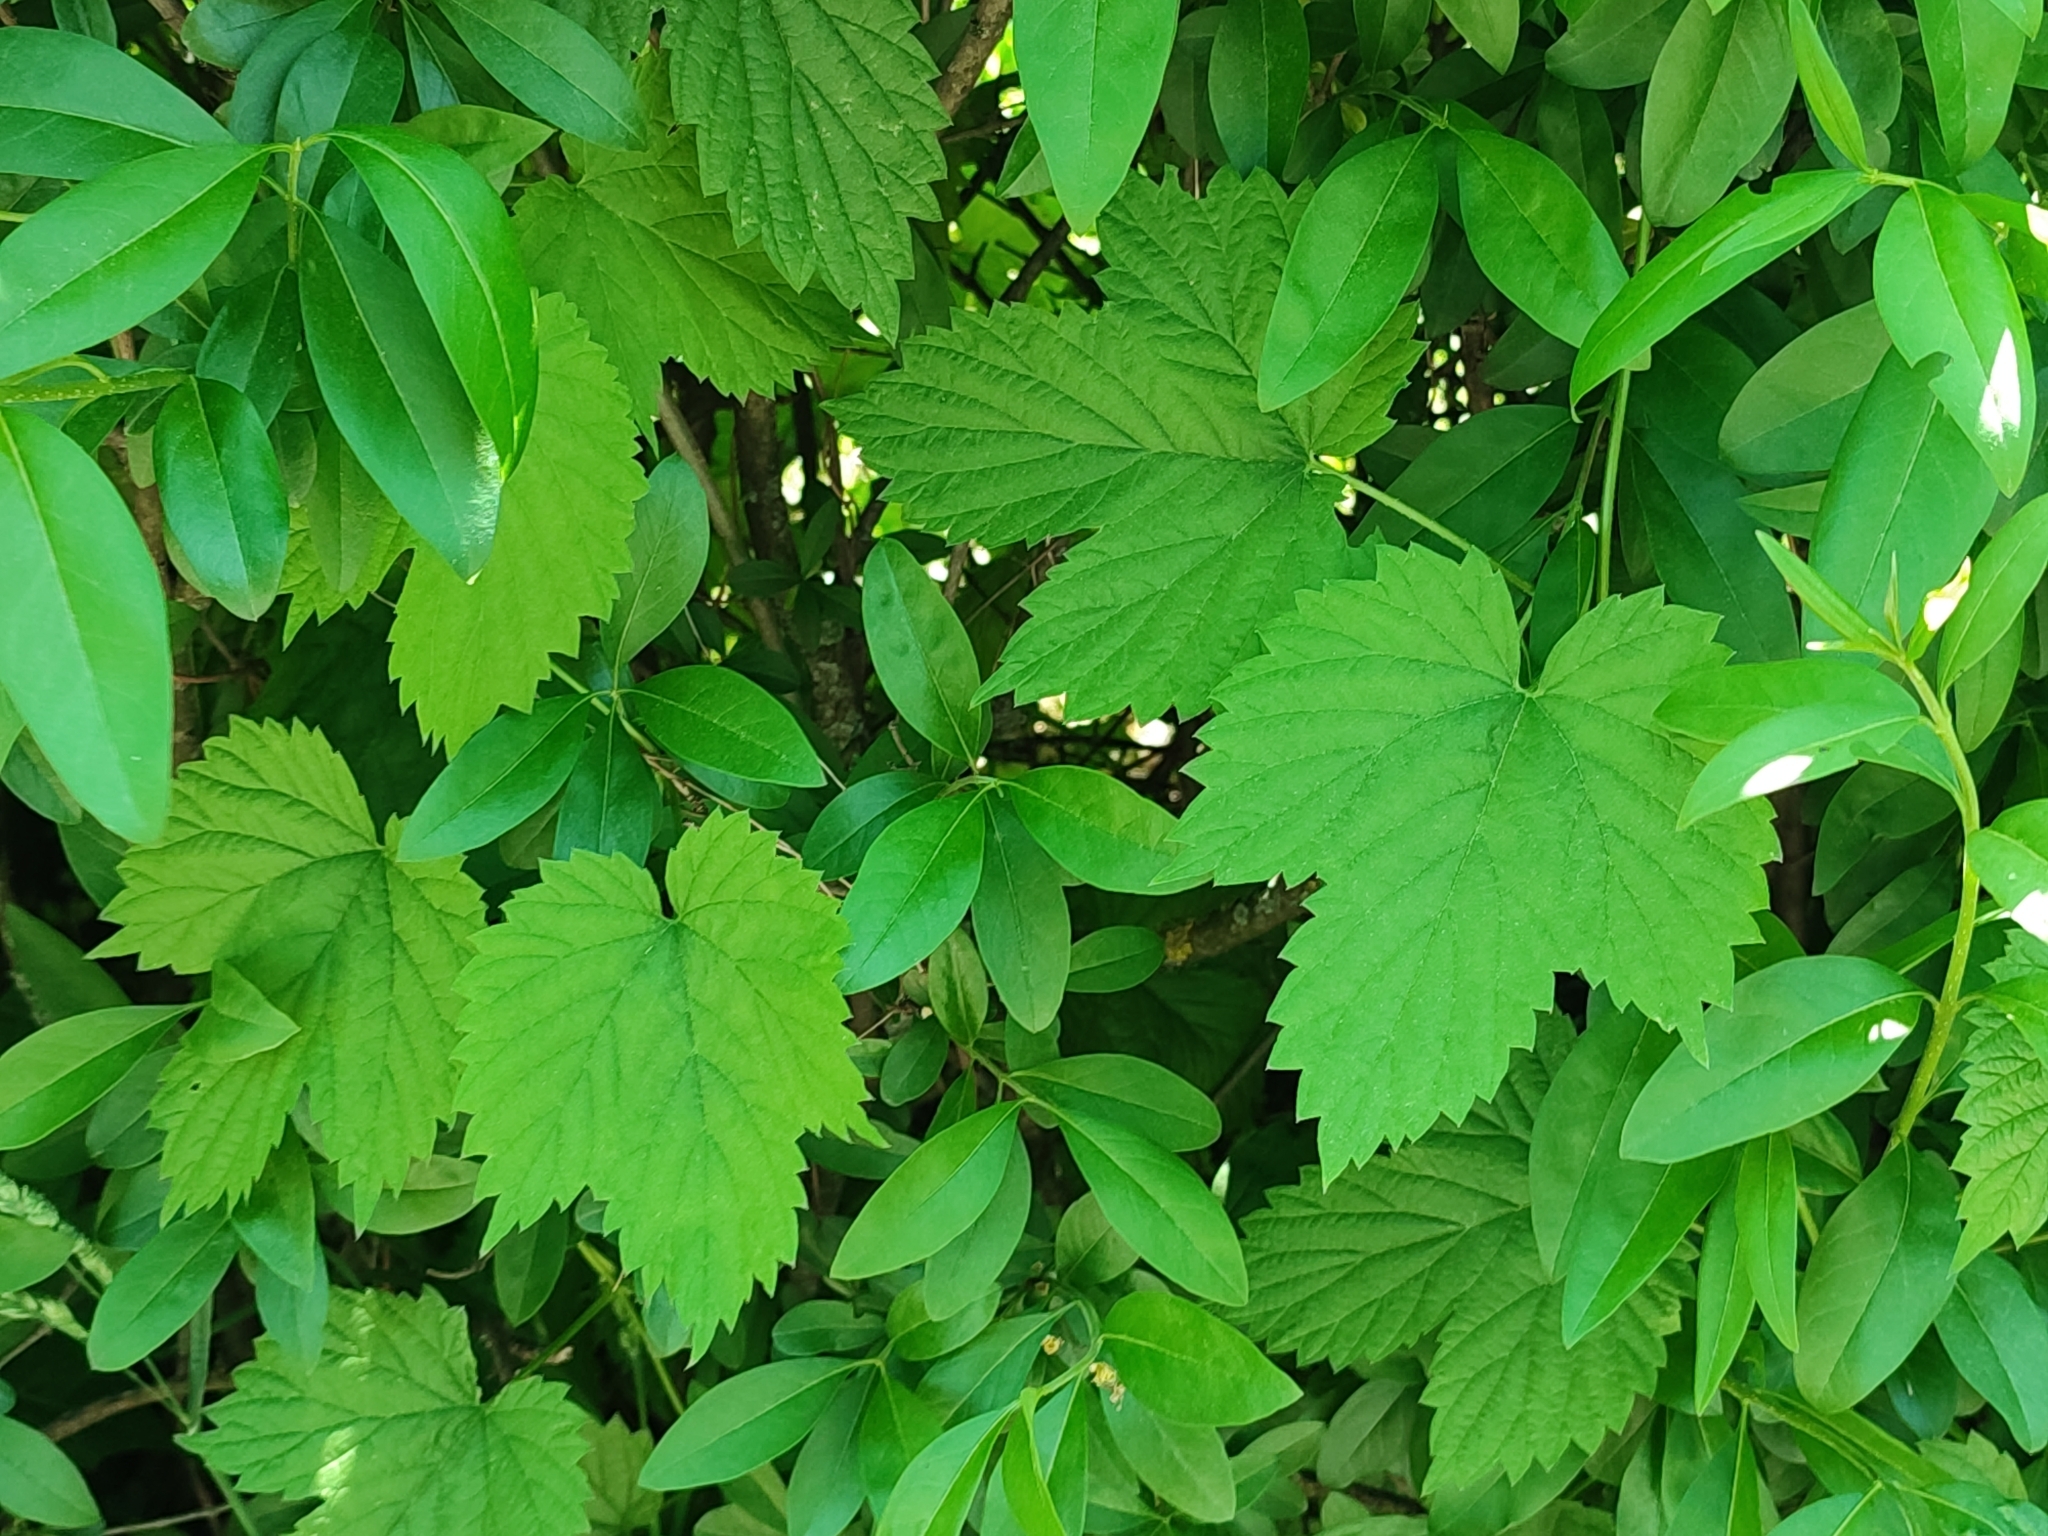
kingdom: Plantae
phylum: Tracheophyta
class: Magnoliopsida
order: Rosales
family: Cannabaceae
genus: Humulus
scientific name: Humulus lupulus
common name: Hop
